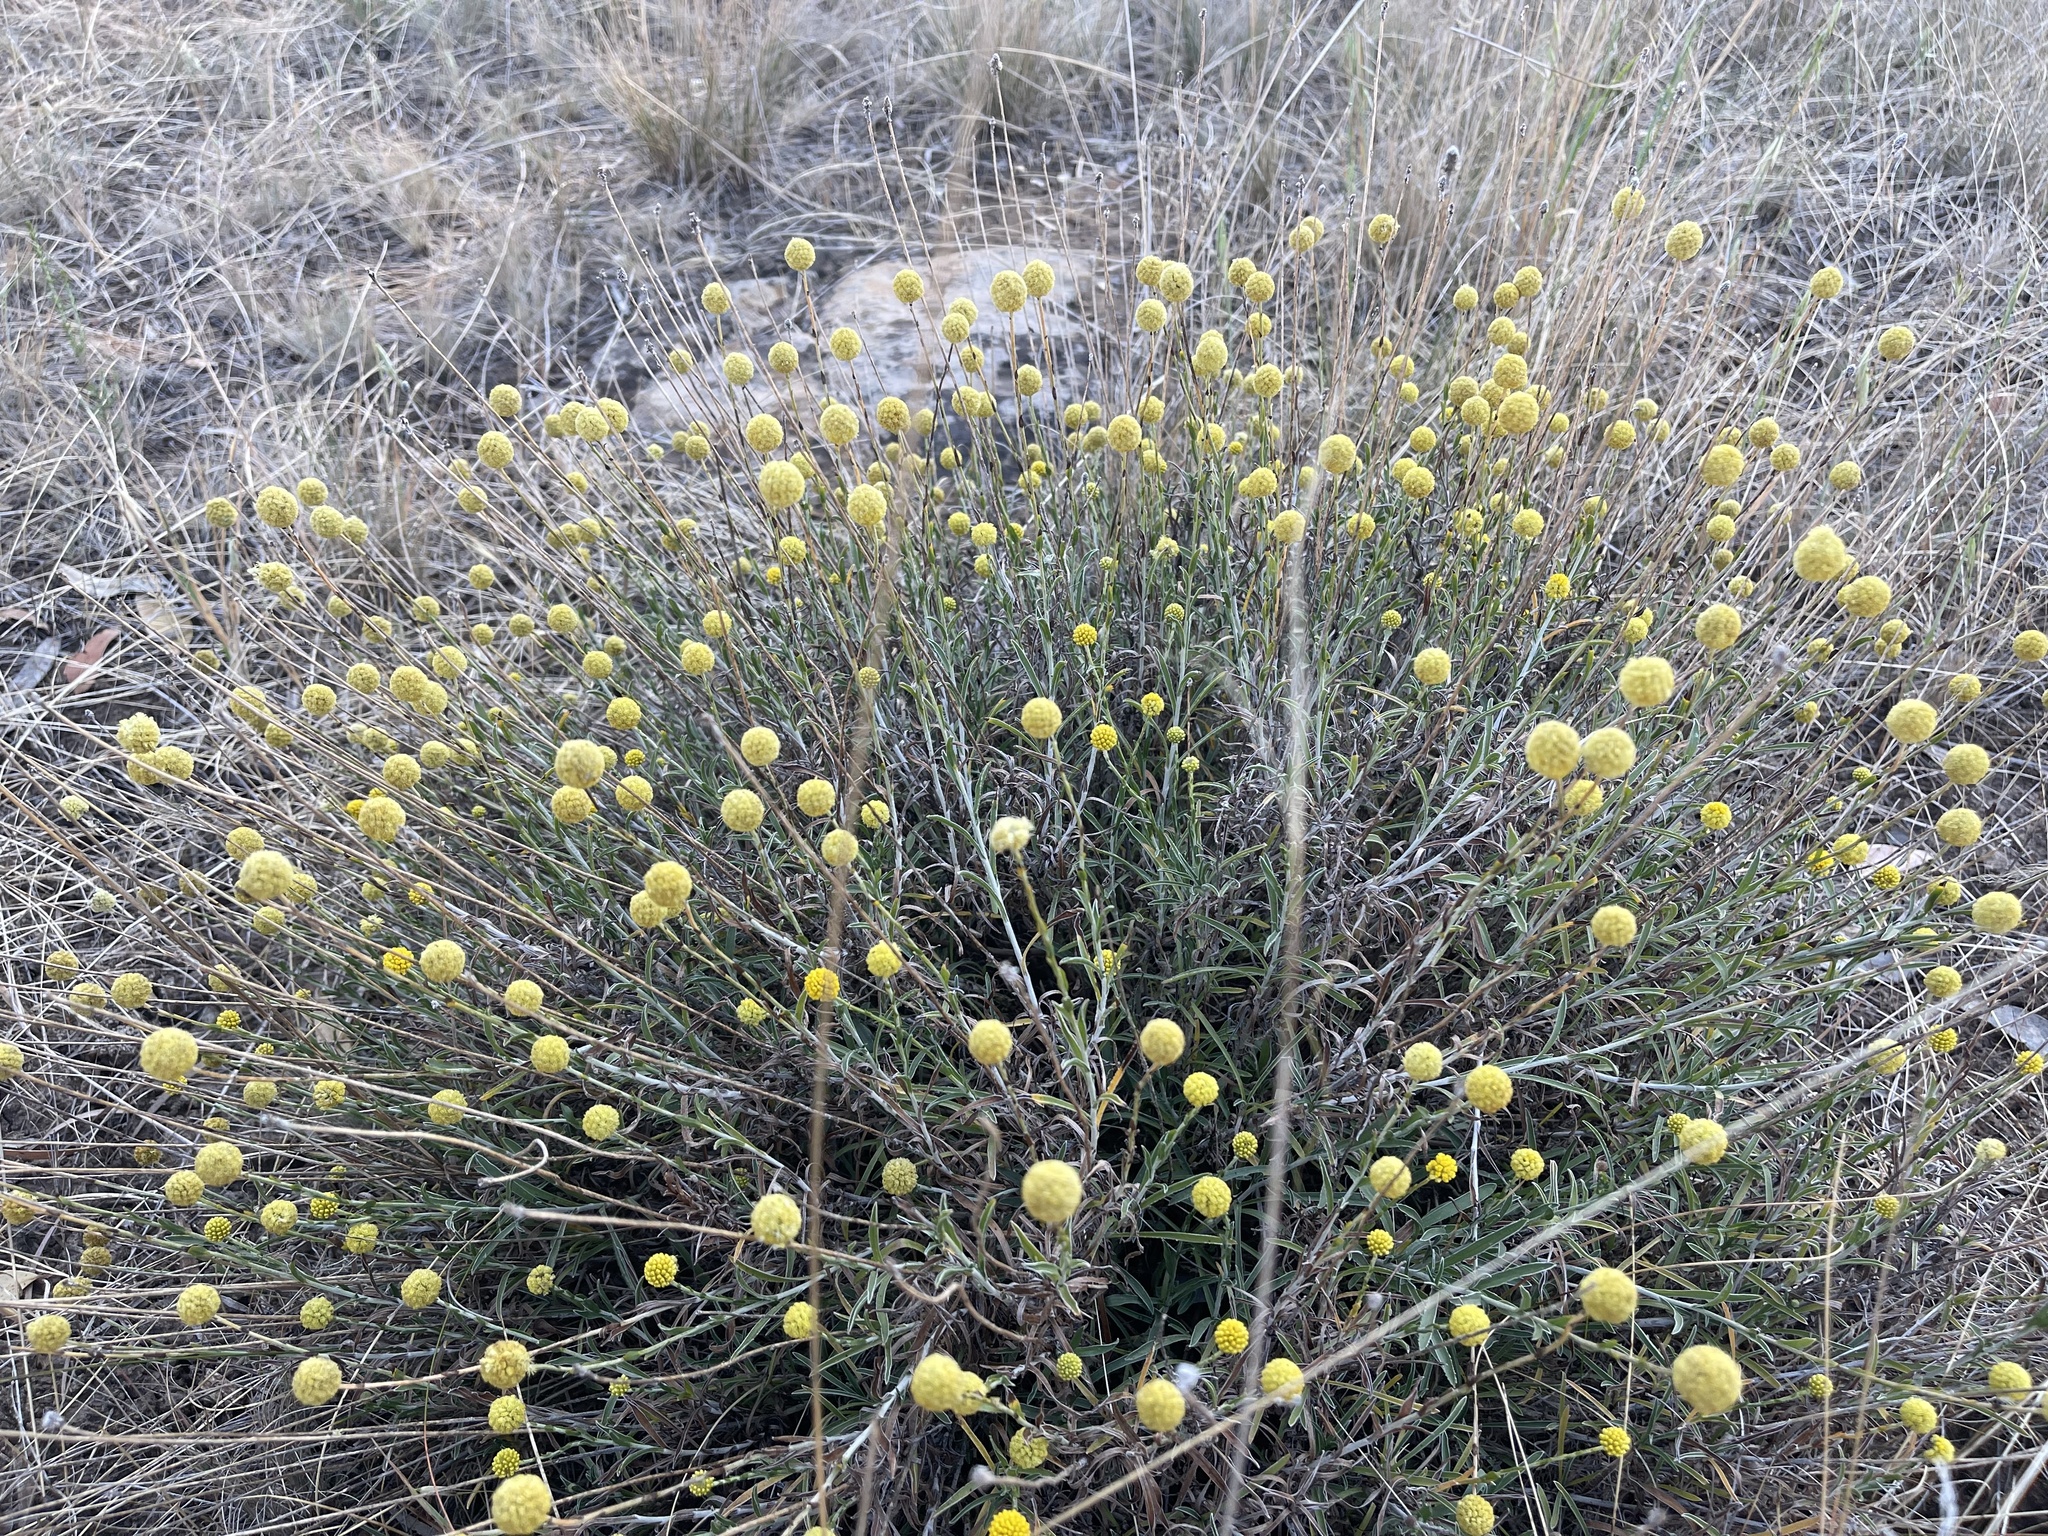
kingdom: Plantae
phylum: Tracheophyta
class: Magnoliopsida
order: Asterales
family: Asteraceae
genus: Pycnosorus
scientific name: Pycnosorus chrysanthus
